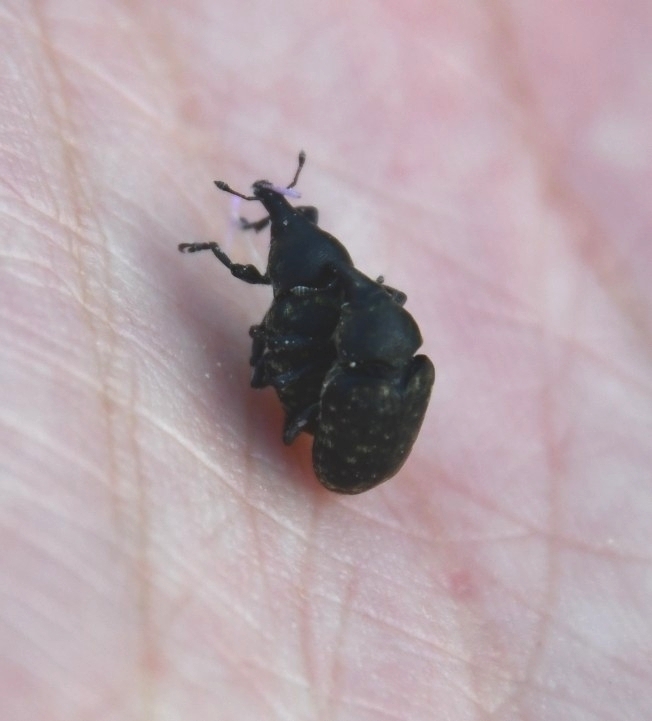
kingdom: Animalia
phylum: Arthropoda
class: Insecta
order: Coleoptera
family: Curculionidae
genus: Larinus
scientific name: Larinus turbinatus
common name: Weevil
